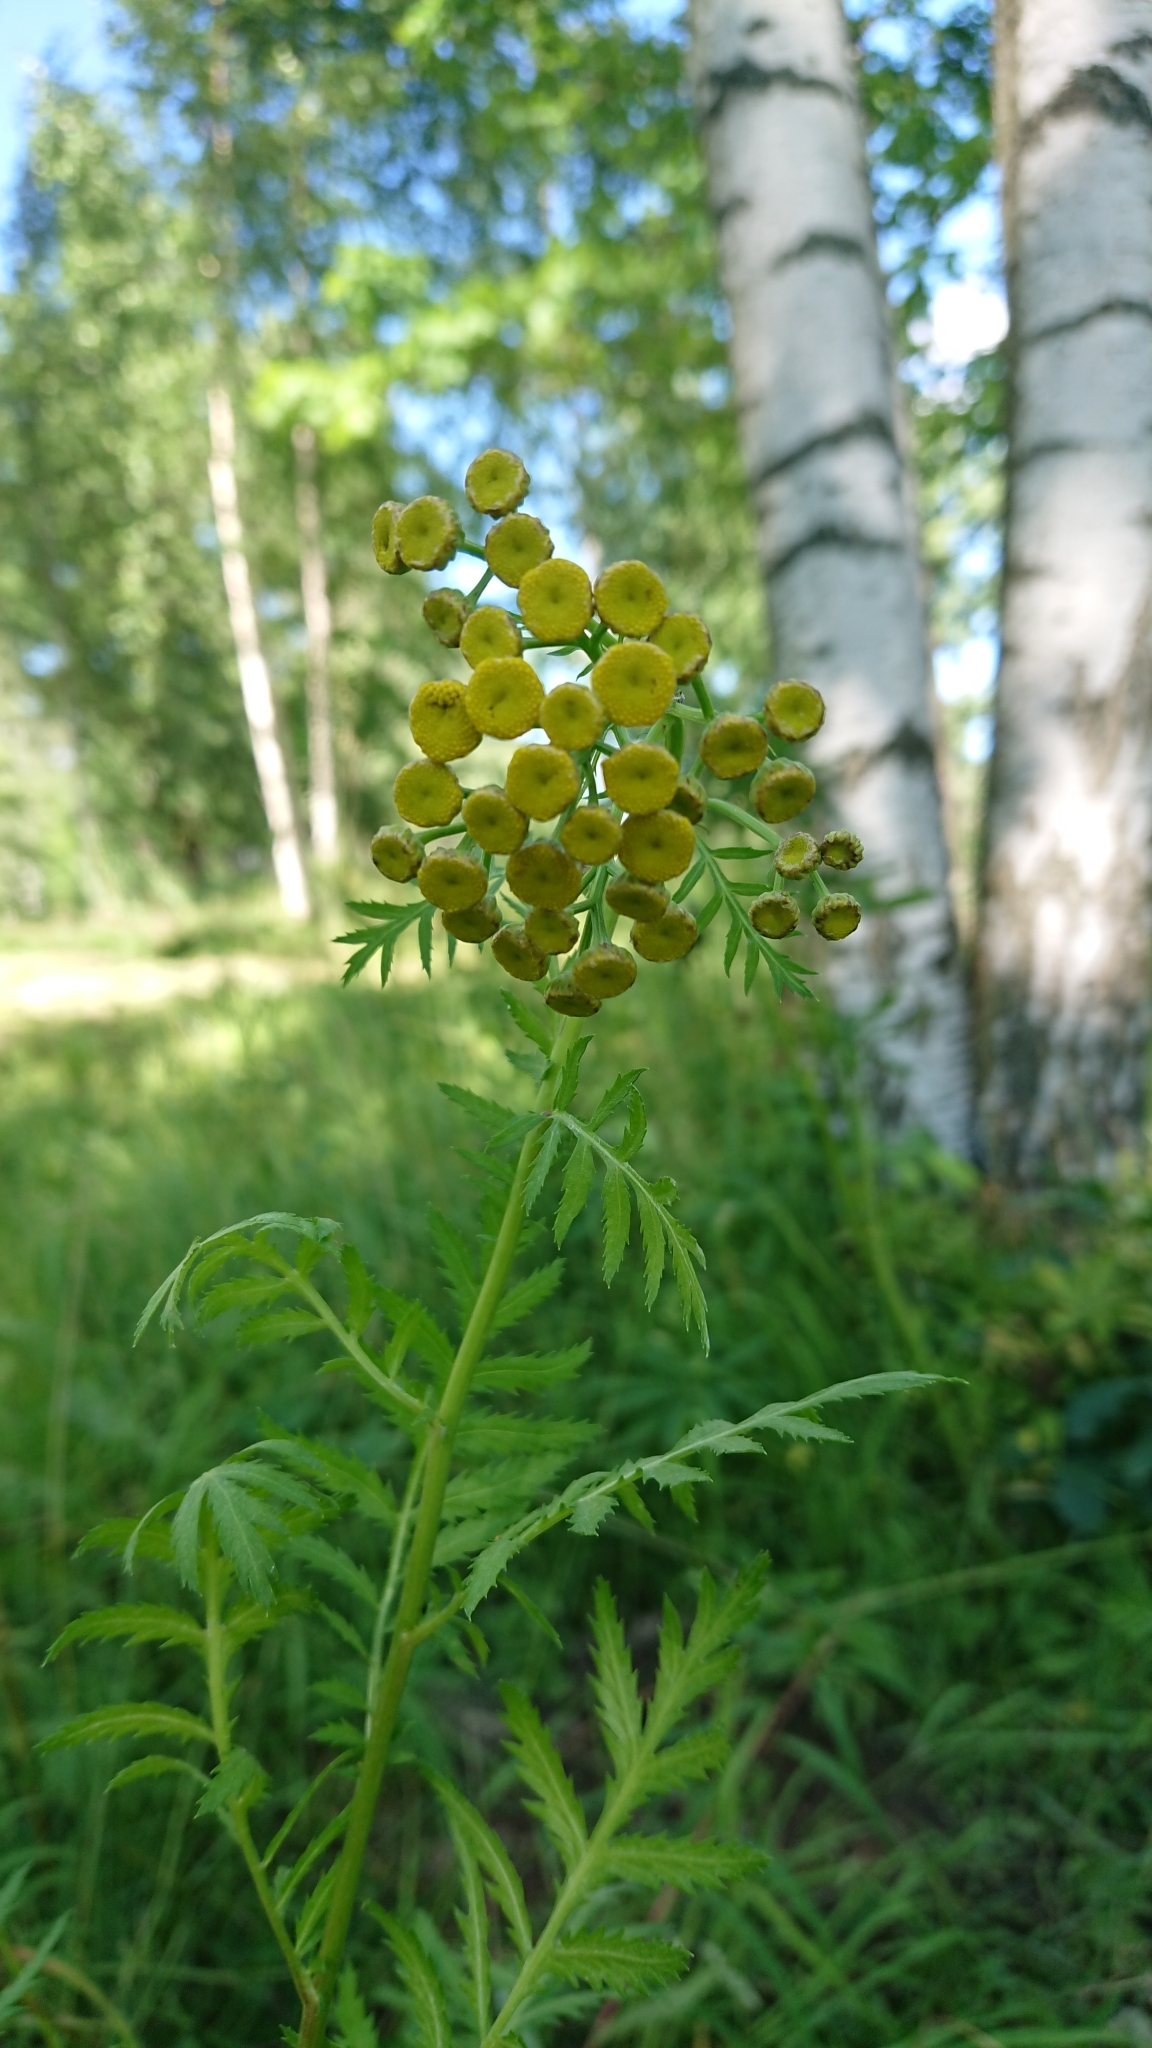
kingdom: Plantae
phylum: Tracheophyta
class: Magnoliopsida
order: Asterales
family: Asteraceae
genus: Tanacetum
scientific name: Tanacetum vulgare
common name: Common tansy
